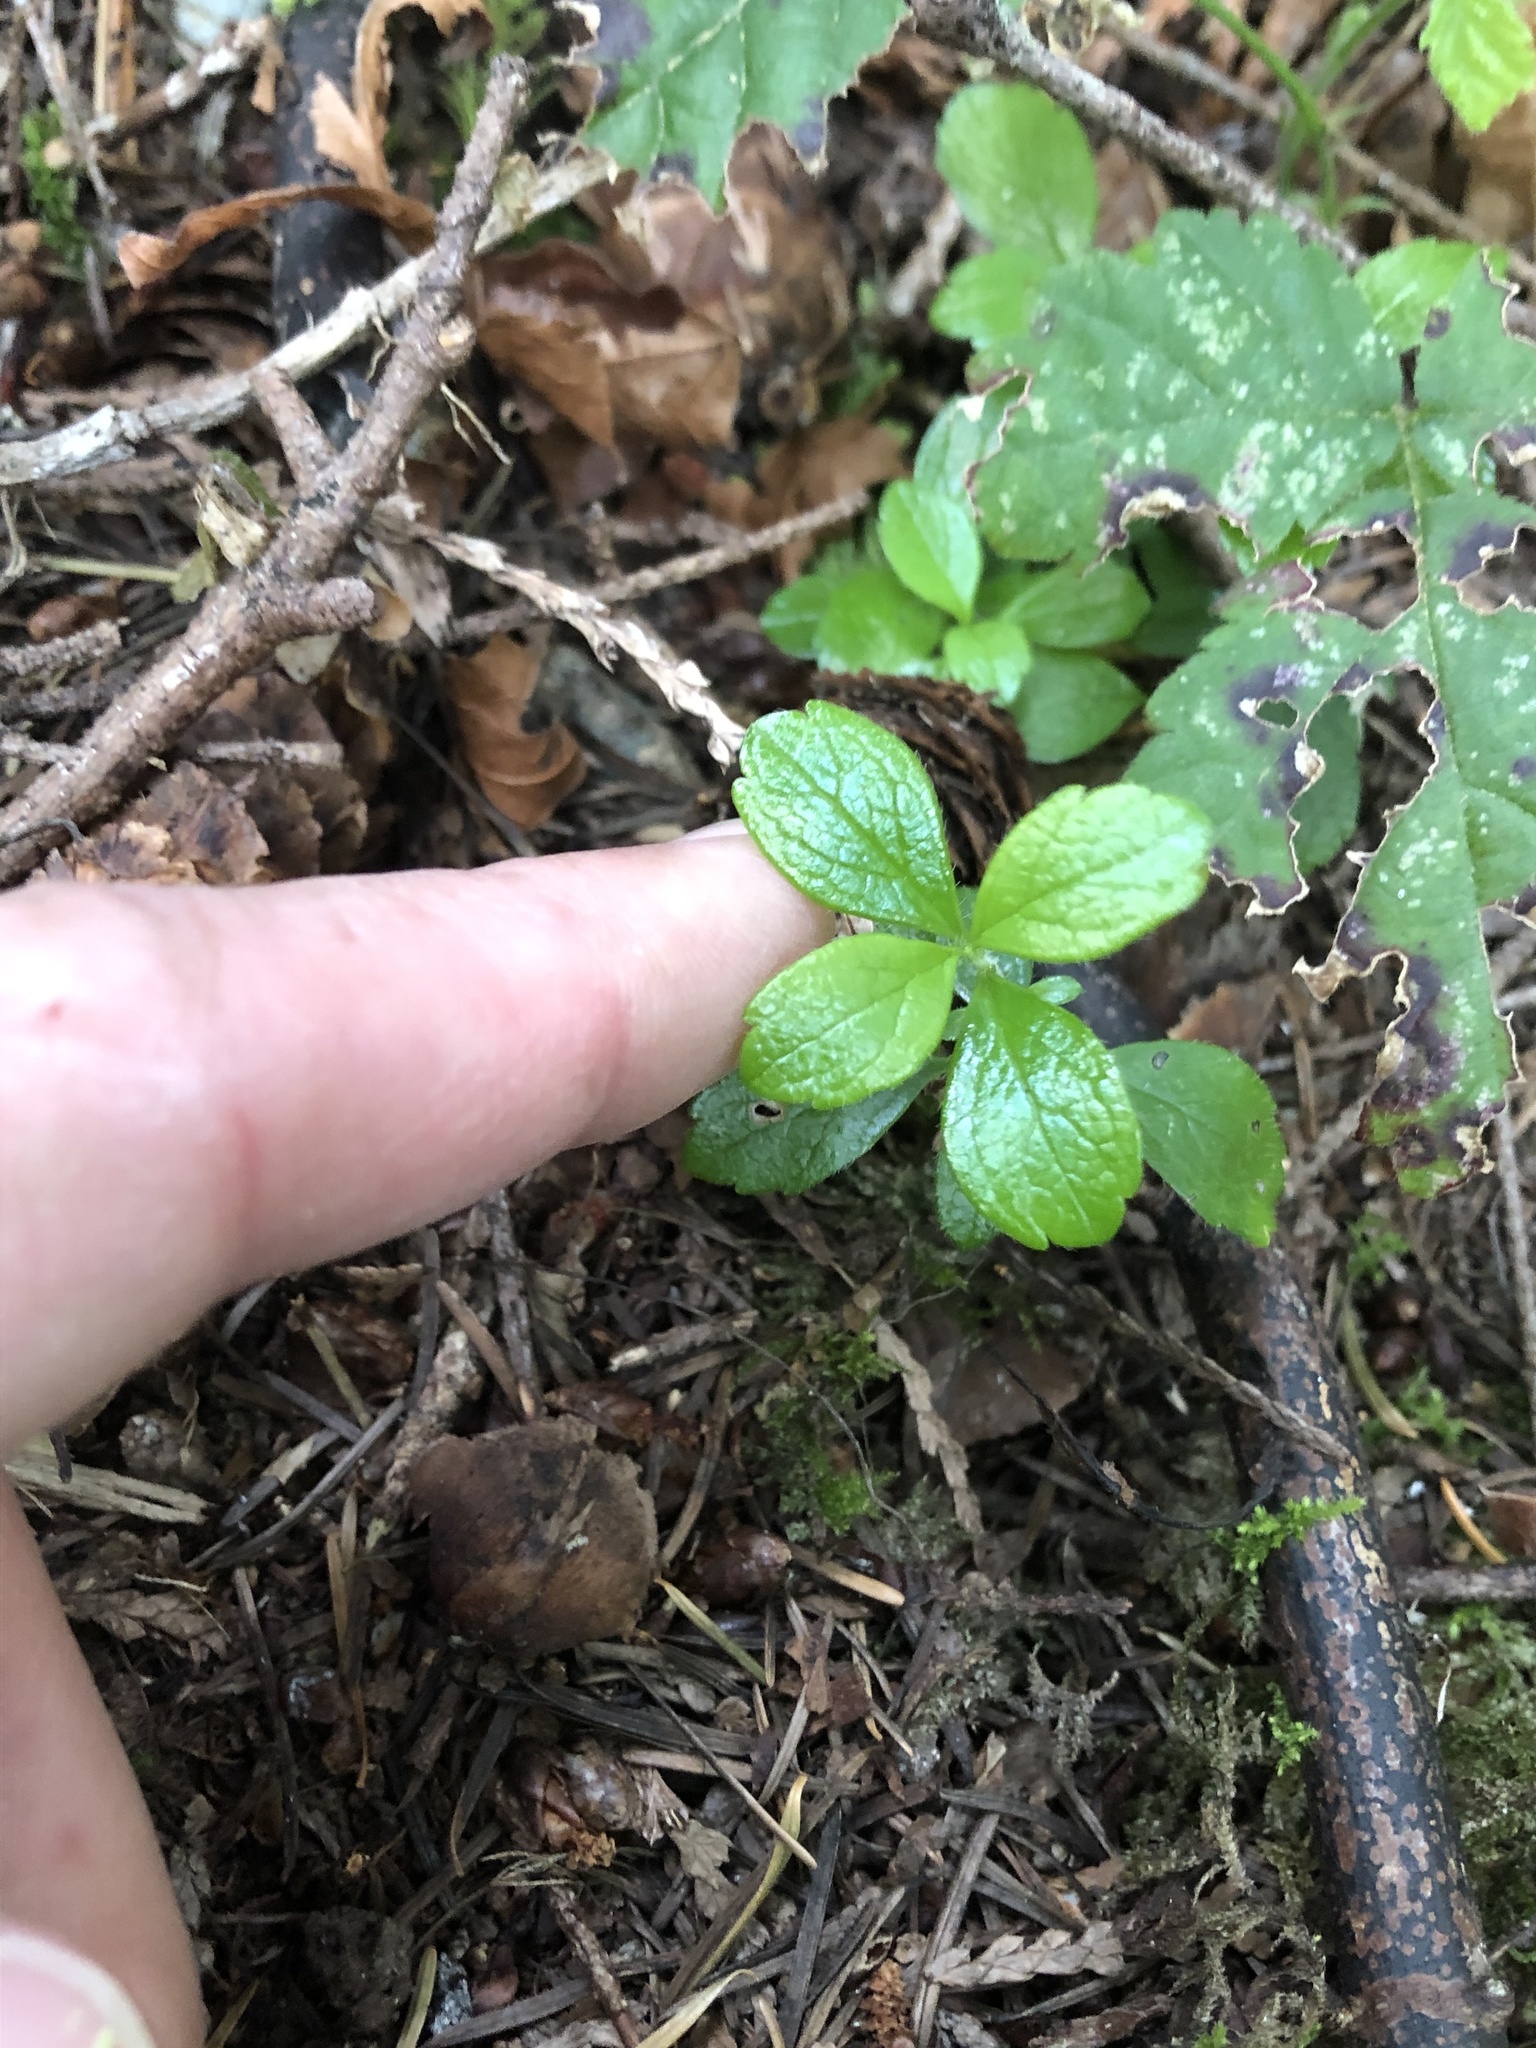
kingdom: Plantae
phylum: Tracheophyta
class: Magnoliopsida
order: Dipsacales
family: Caprifoliaceae
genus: Linnaea
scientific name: Linnaea borealis
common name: Twinflower
